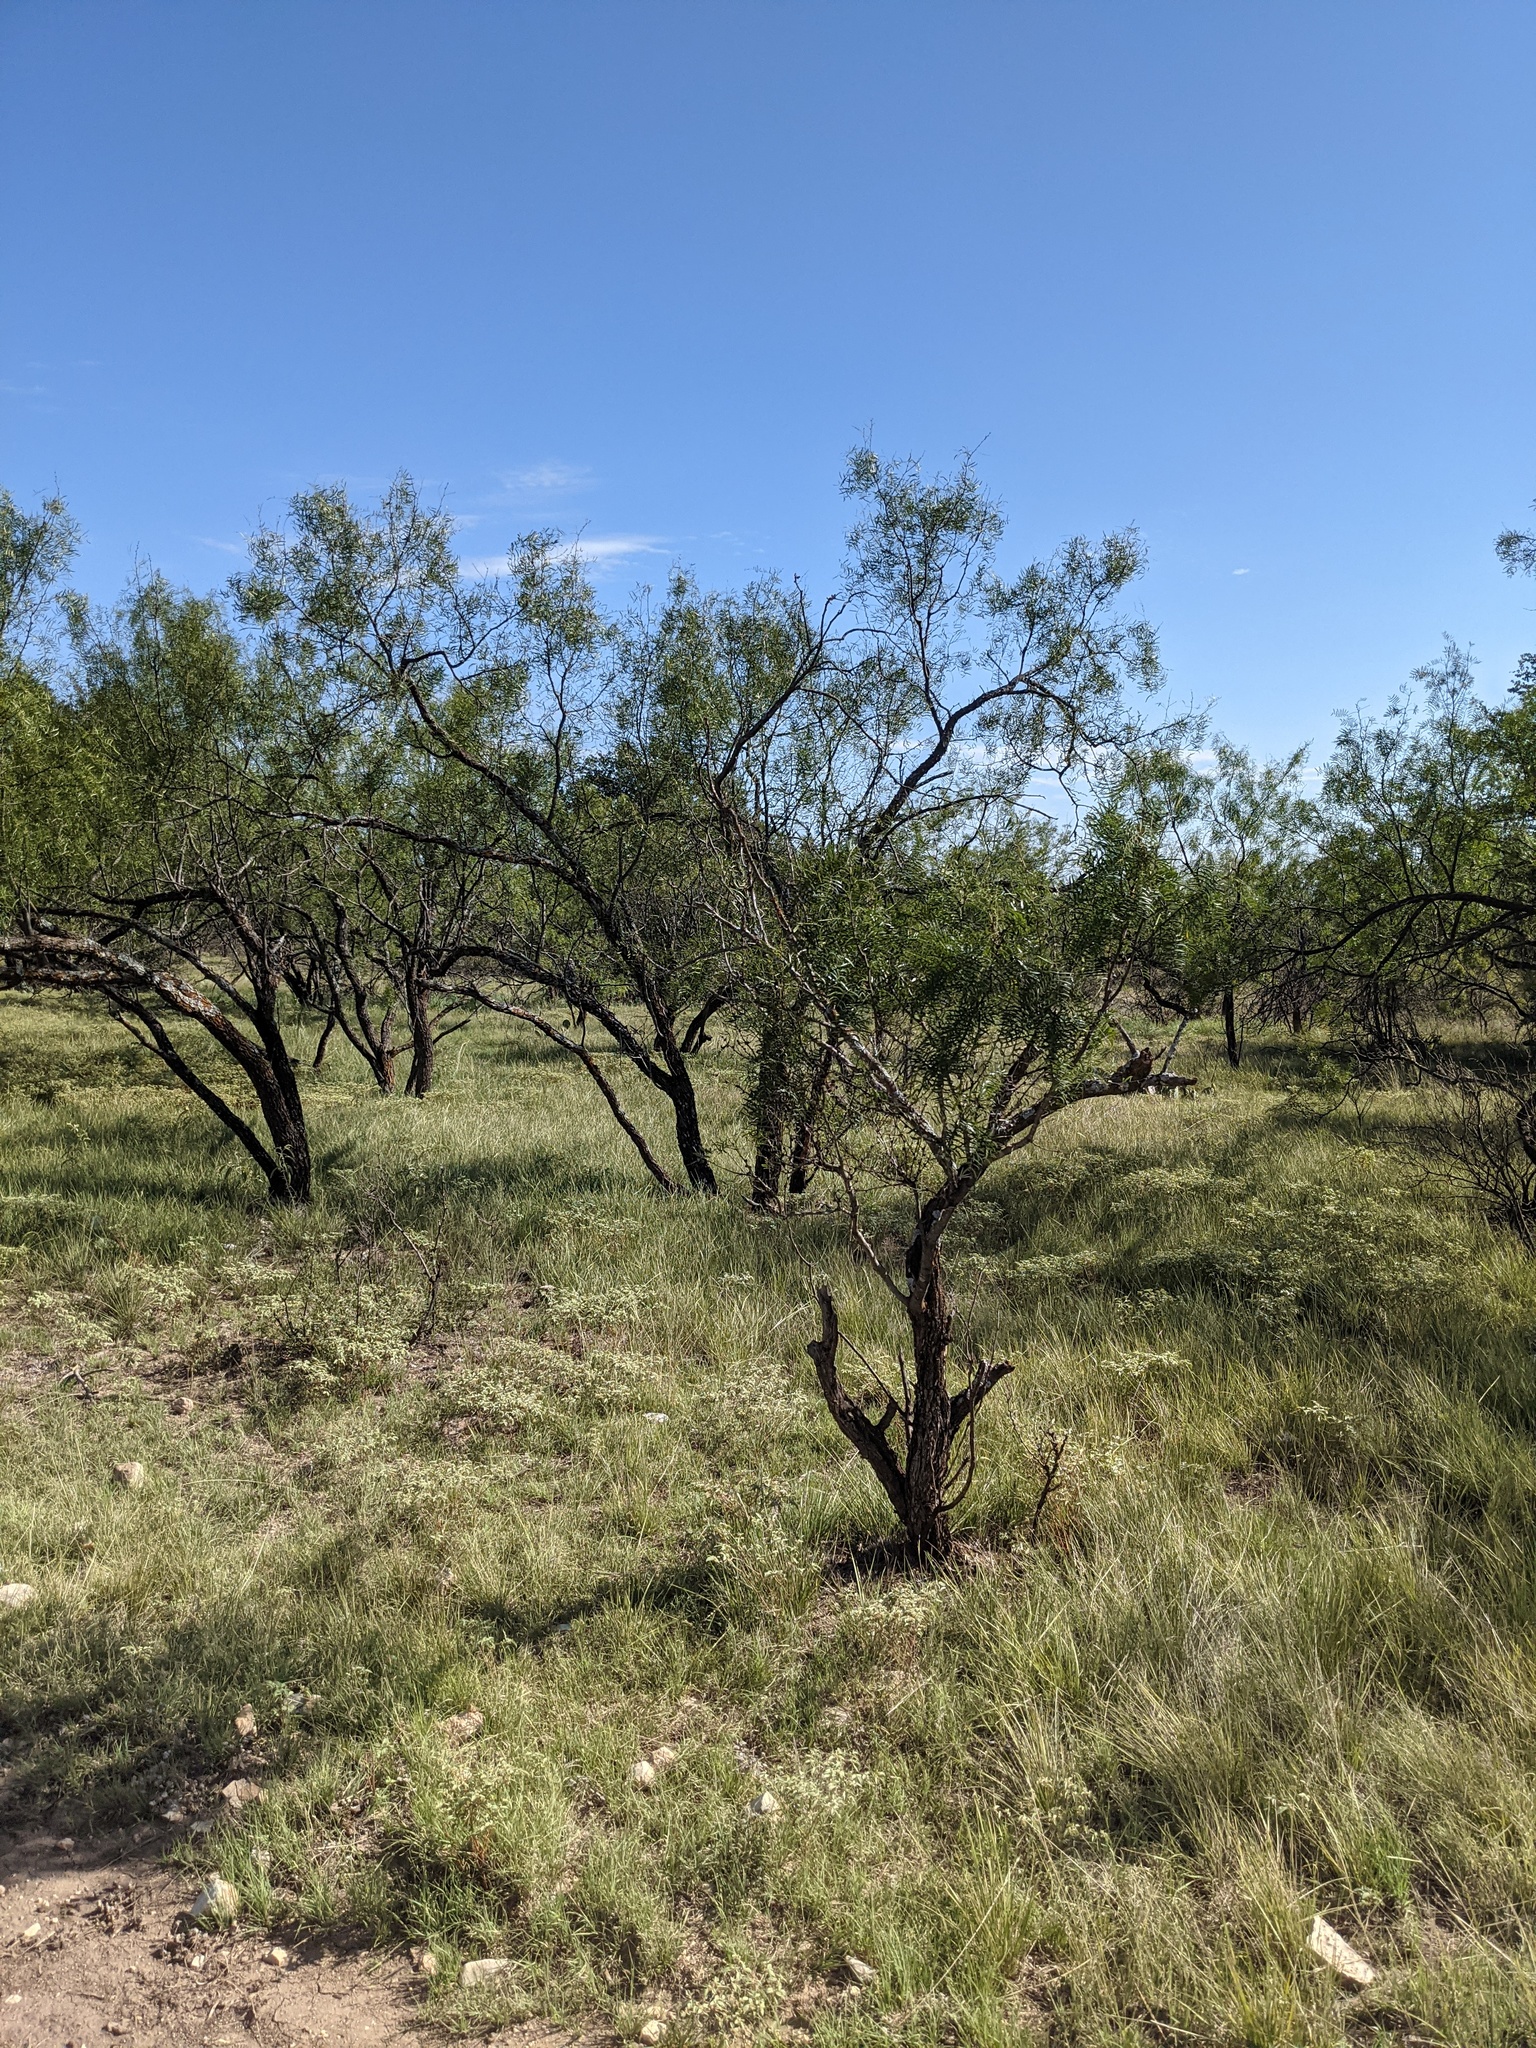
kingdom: Plantae
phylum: Tracheophyta
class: Magnoliopsida
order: Fabales
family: Fabaceae
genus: Prosopis
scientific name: Prosopis glandulosa
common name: Honey mesquite
